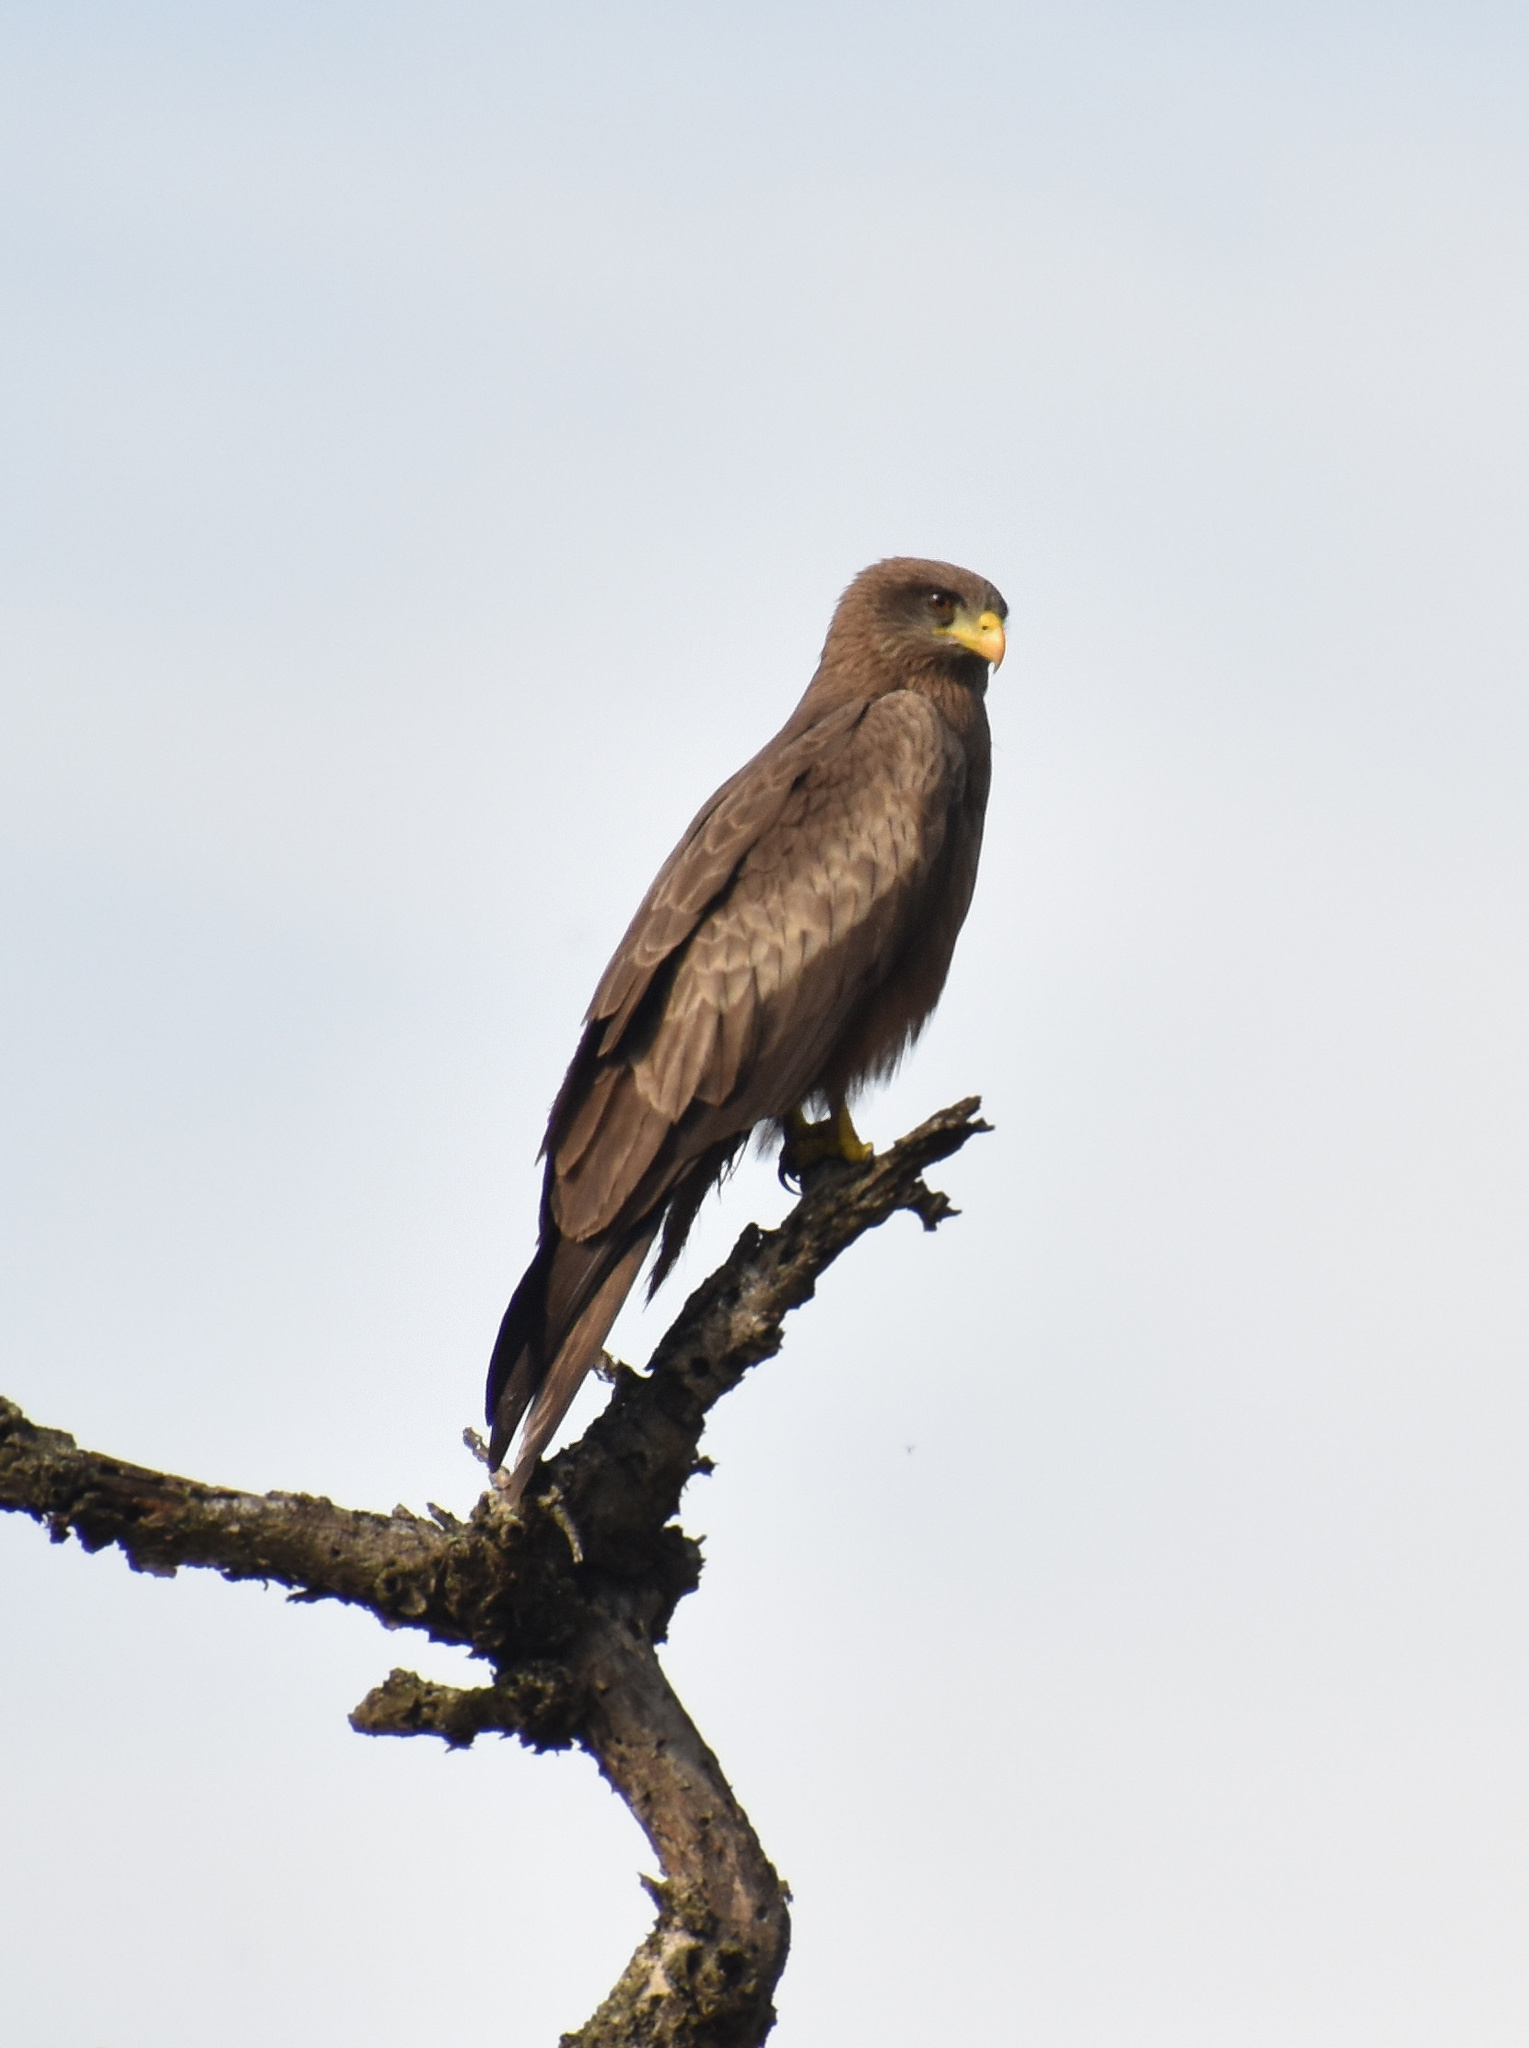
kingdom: Animalia
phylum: Chordata
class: Aves
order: Accipitriformes
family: Accipitridae
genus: Milvus
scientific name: Milvus migrans
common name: Black kite
